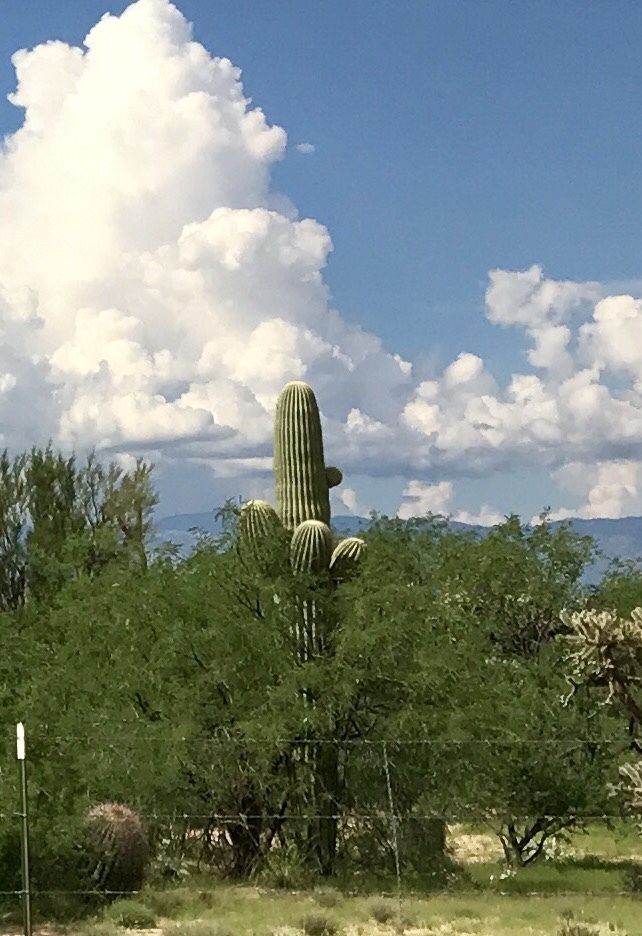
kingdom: Plantae
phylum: Tracheophyta
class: Magnoliopsida
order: Caryophyllales
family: Cactaceae
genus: Carnegiea
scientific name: Carnegiea gigantea
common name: Saguaro
